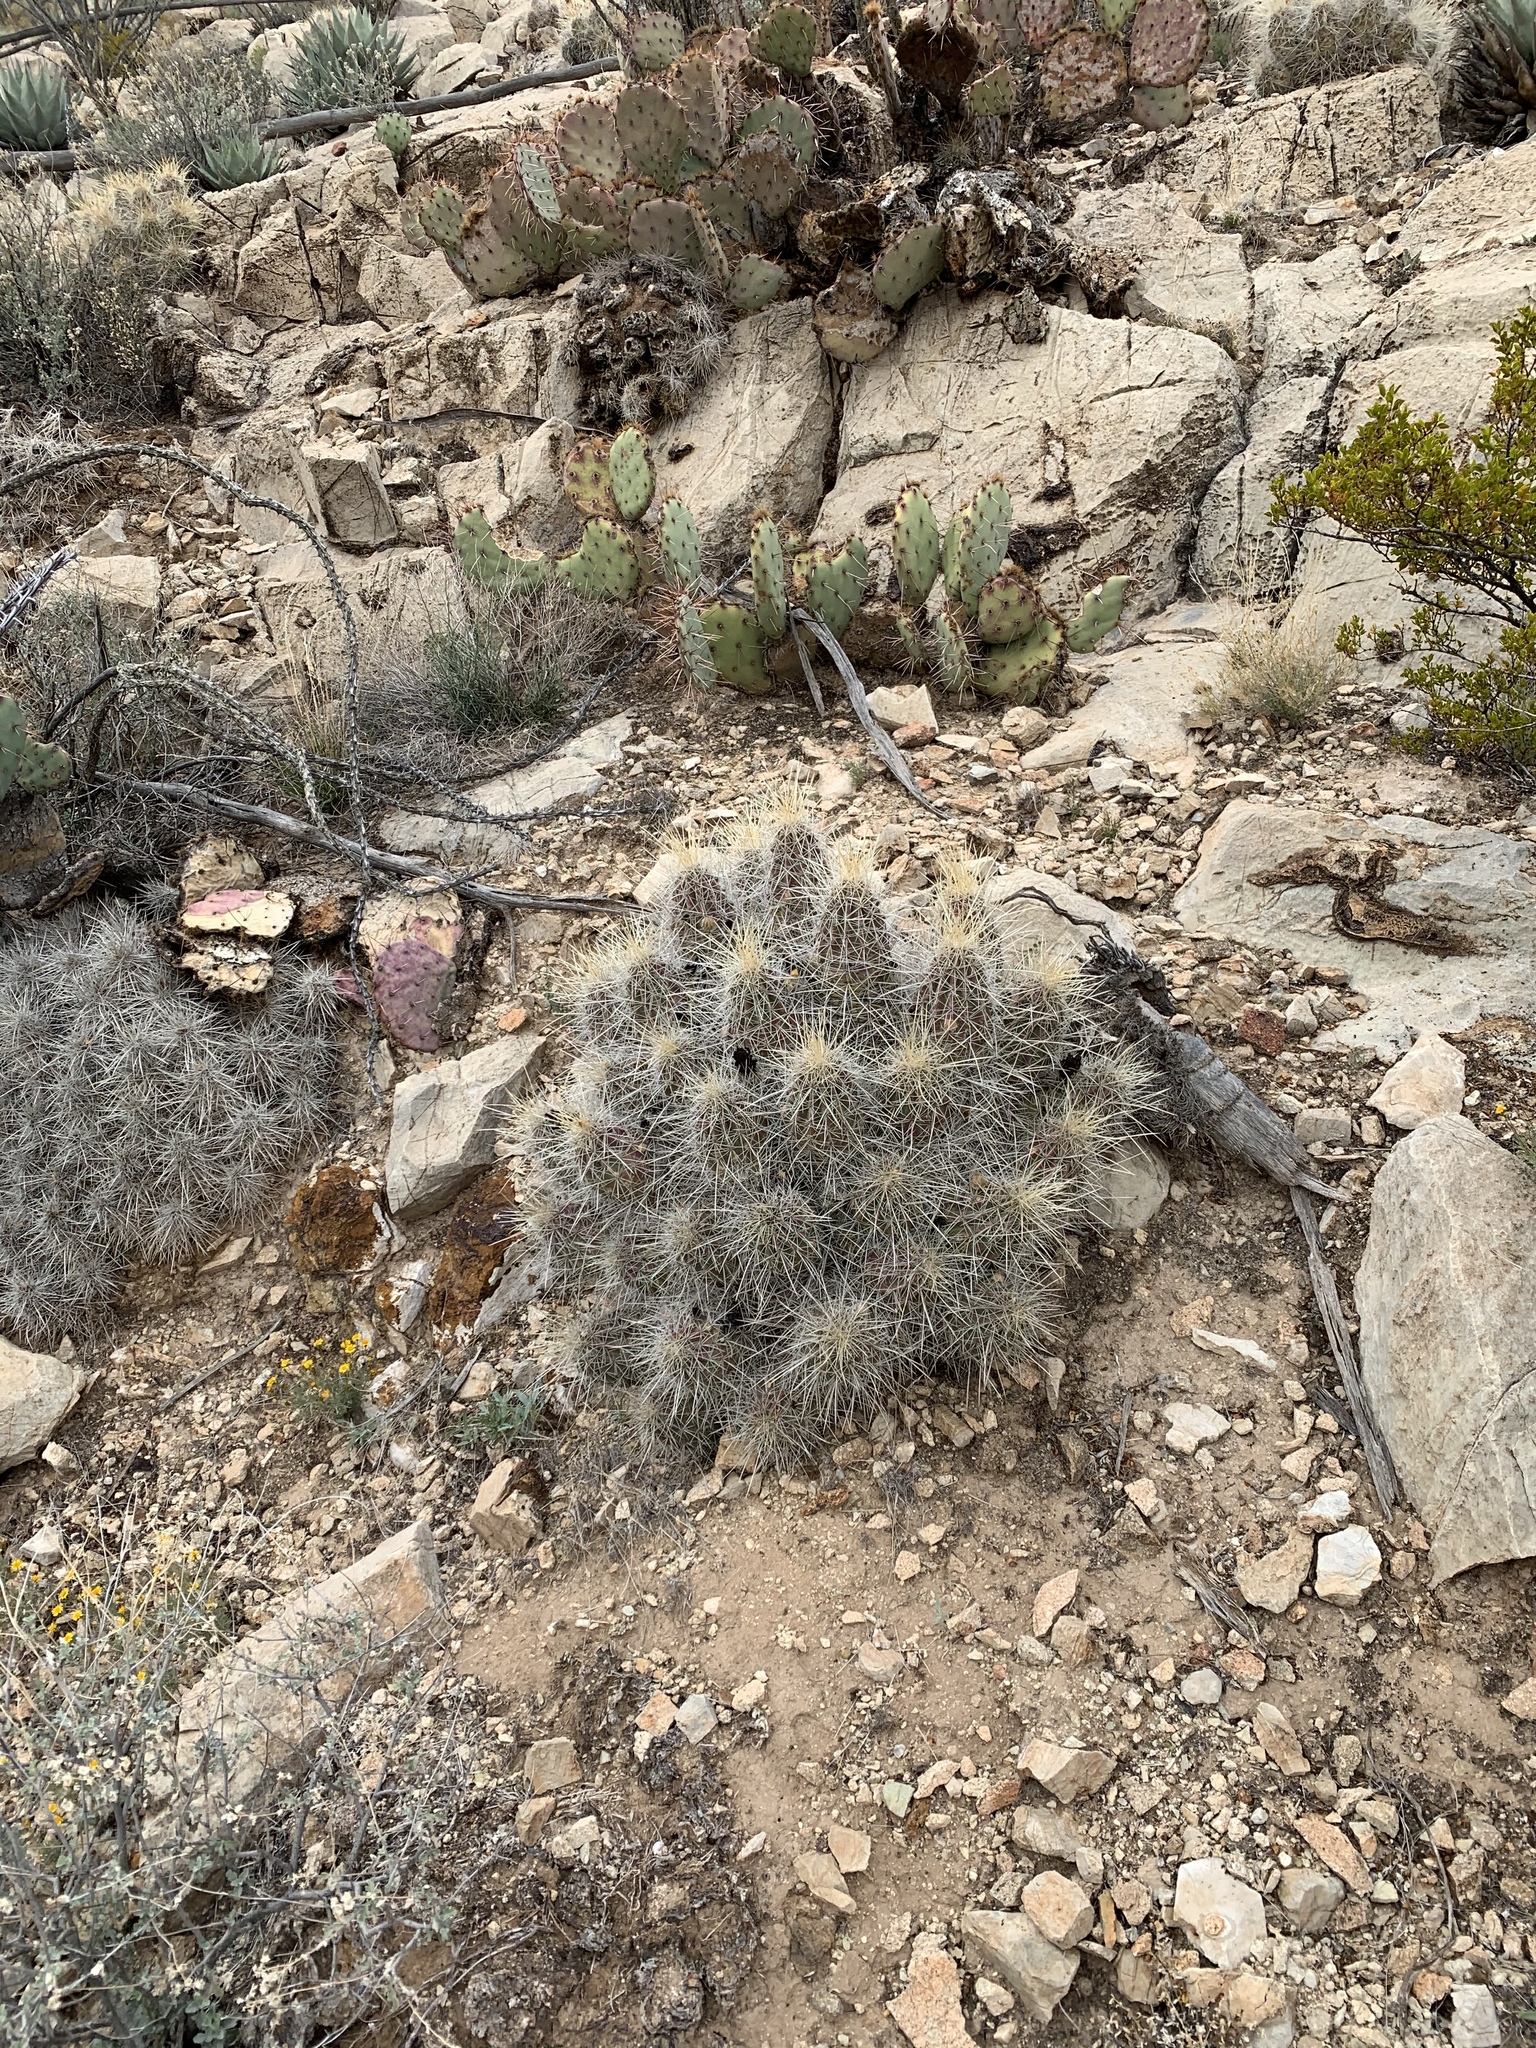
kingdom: Plantae
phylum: Tracheophyta
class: Magnoliopsida
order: Caryophyllales
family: Cactaceae
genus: Echinocereus
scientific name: Echinocereus stramineus
